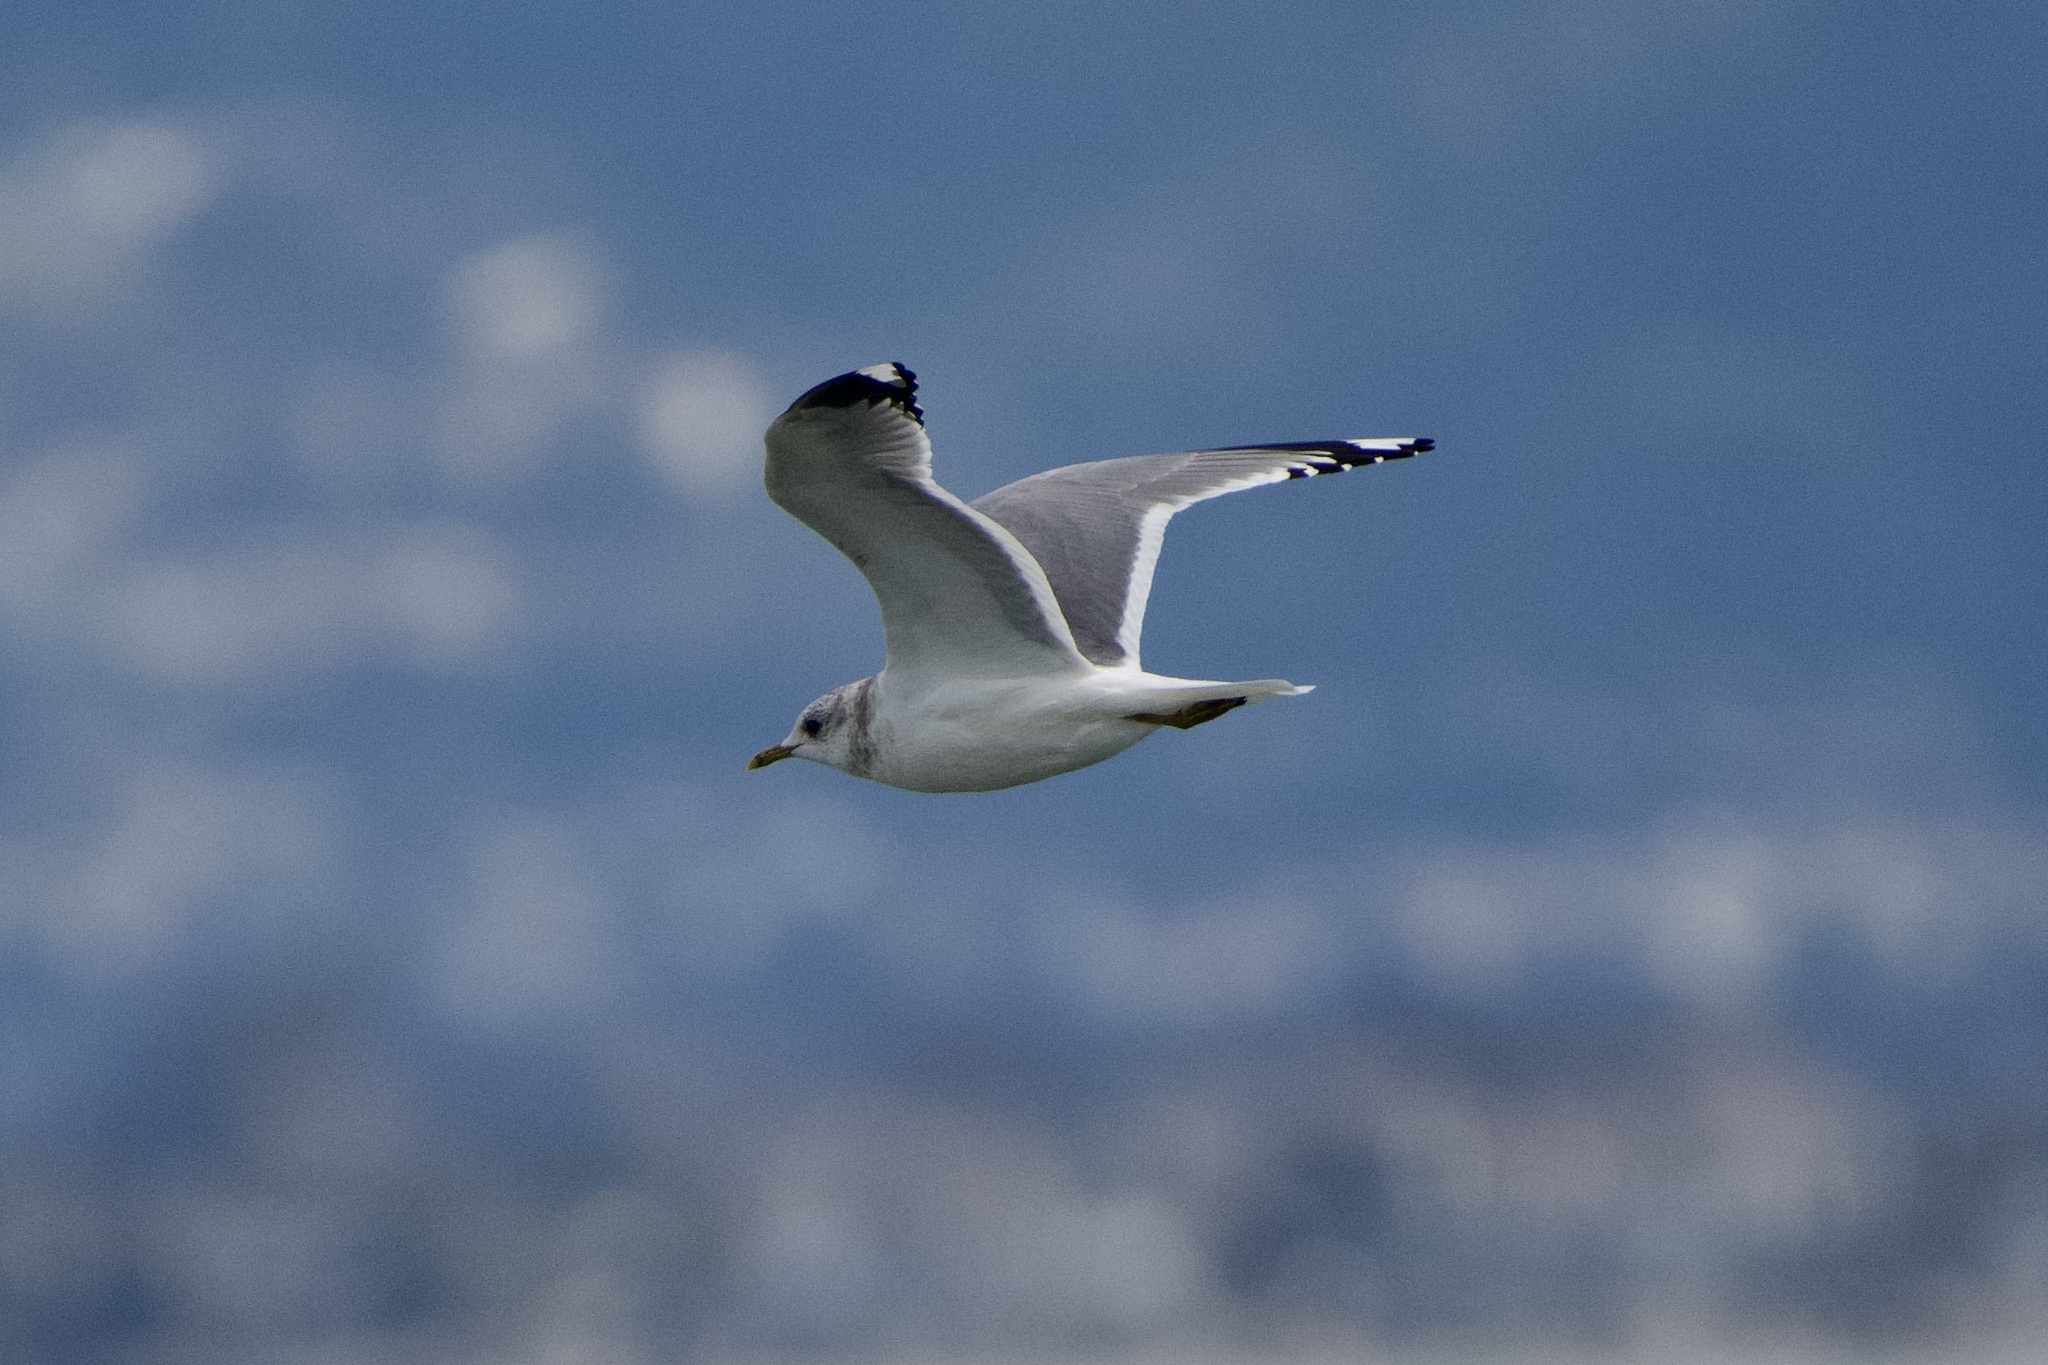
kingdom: Animalia
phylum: Chordata
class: Aves
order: Charadriiformes
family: Laridae
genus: Larus
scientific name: Larus brachyrhynchus
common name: Short-billed gull
